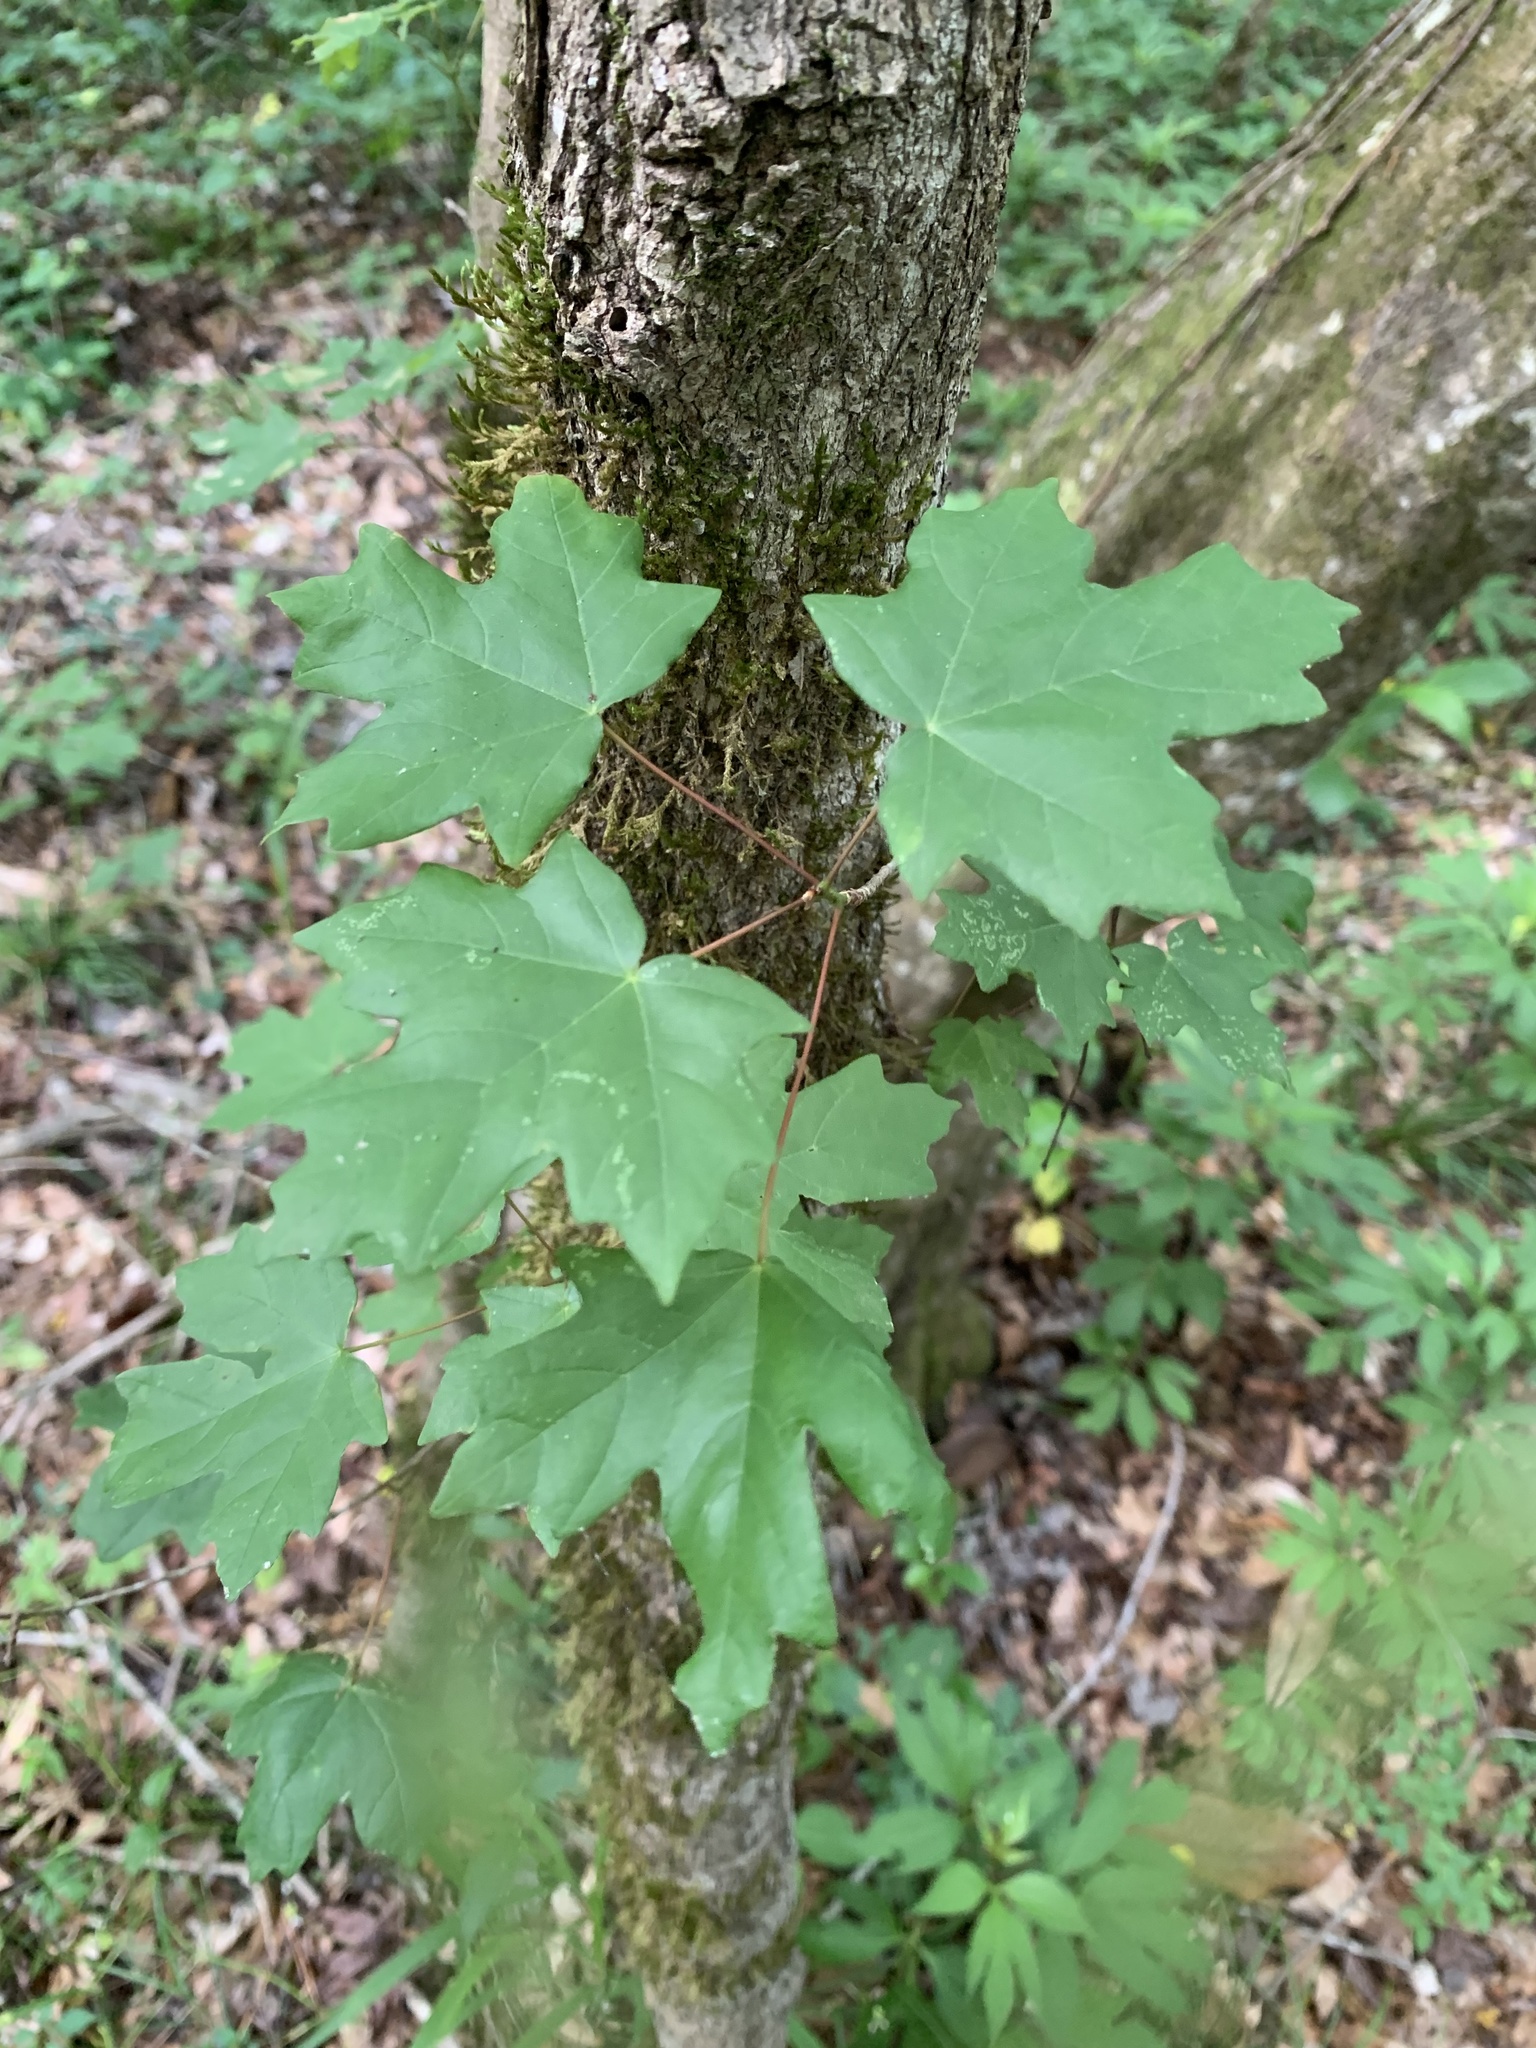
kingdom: Plantae
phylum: Tracheophyta
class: Magnoliopsida
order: Sapindales
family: Sapindaceae
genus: Acer
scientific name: Acer floridanum
